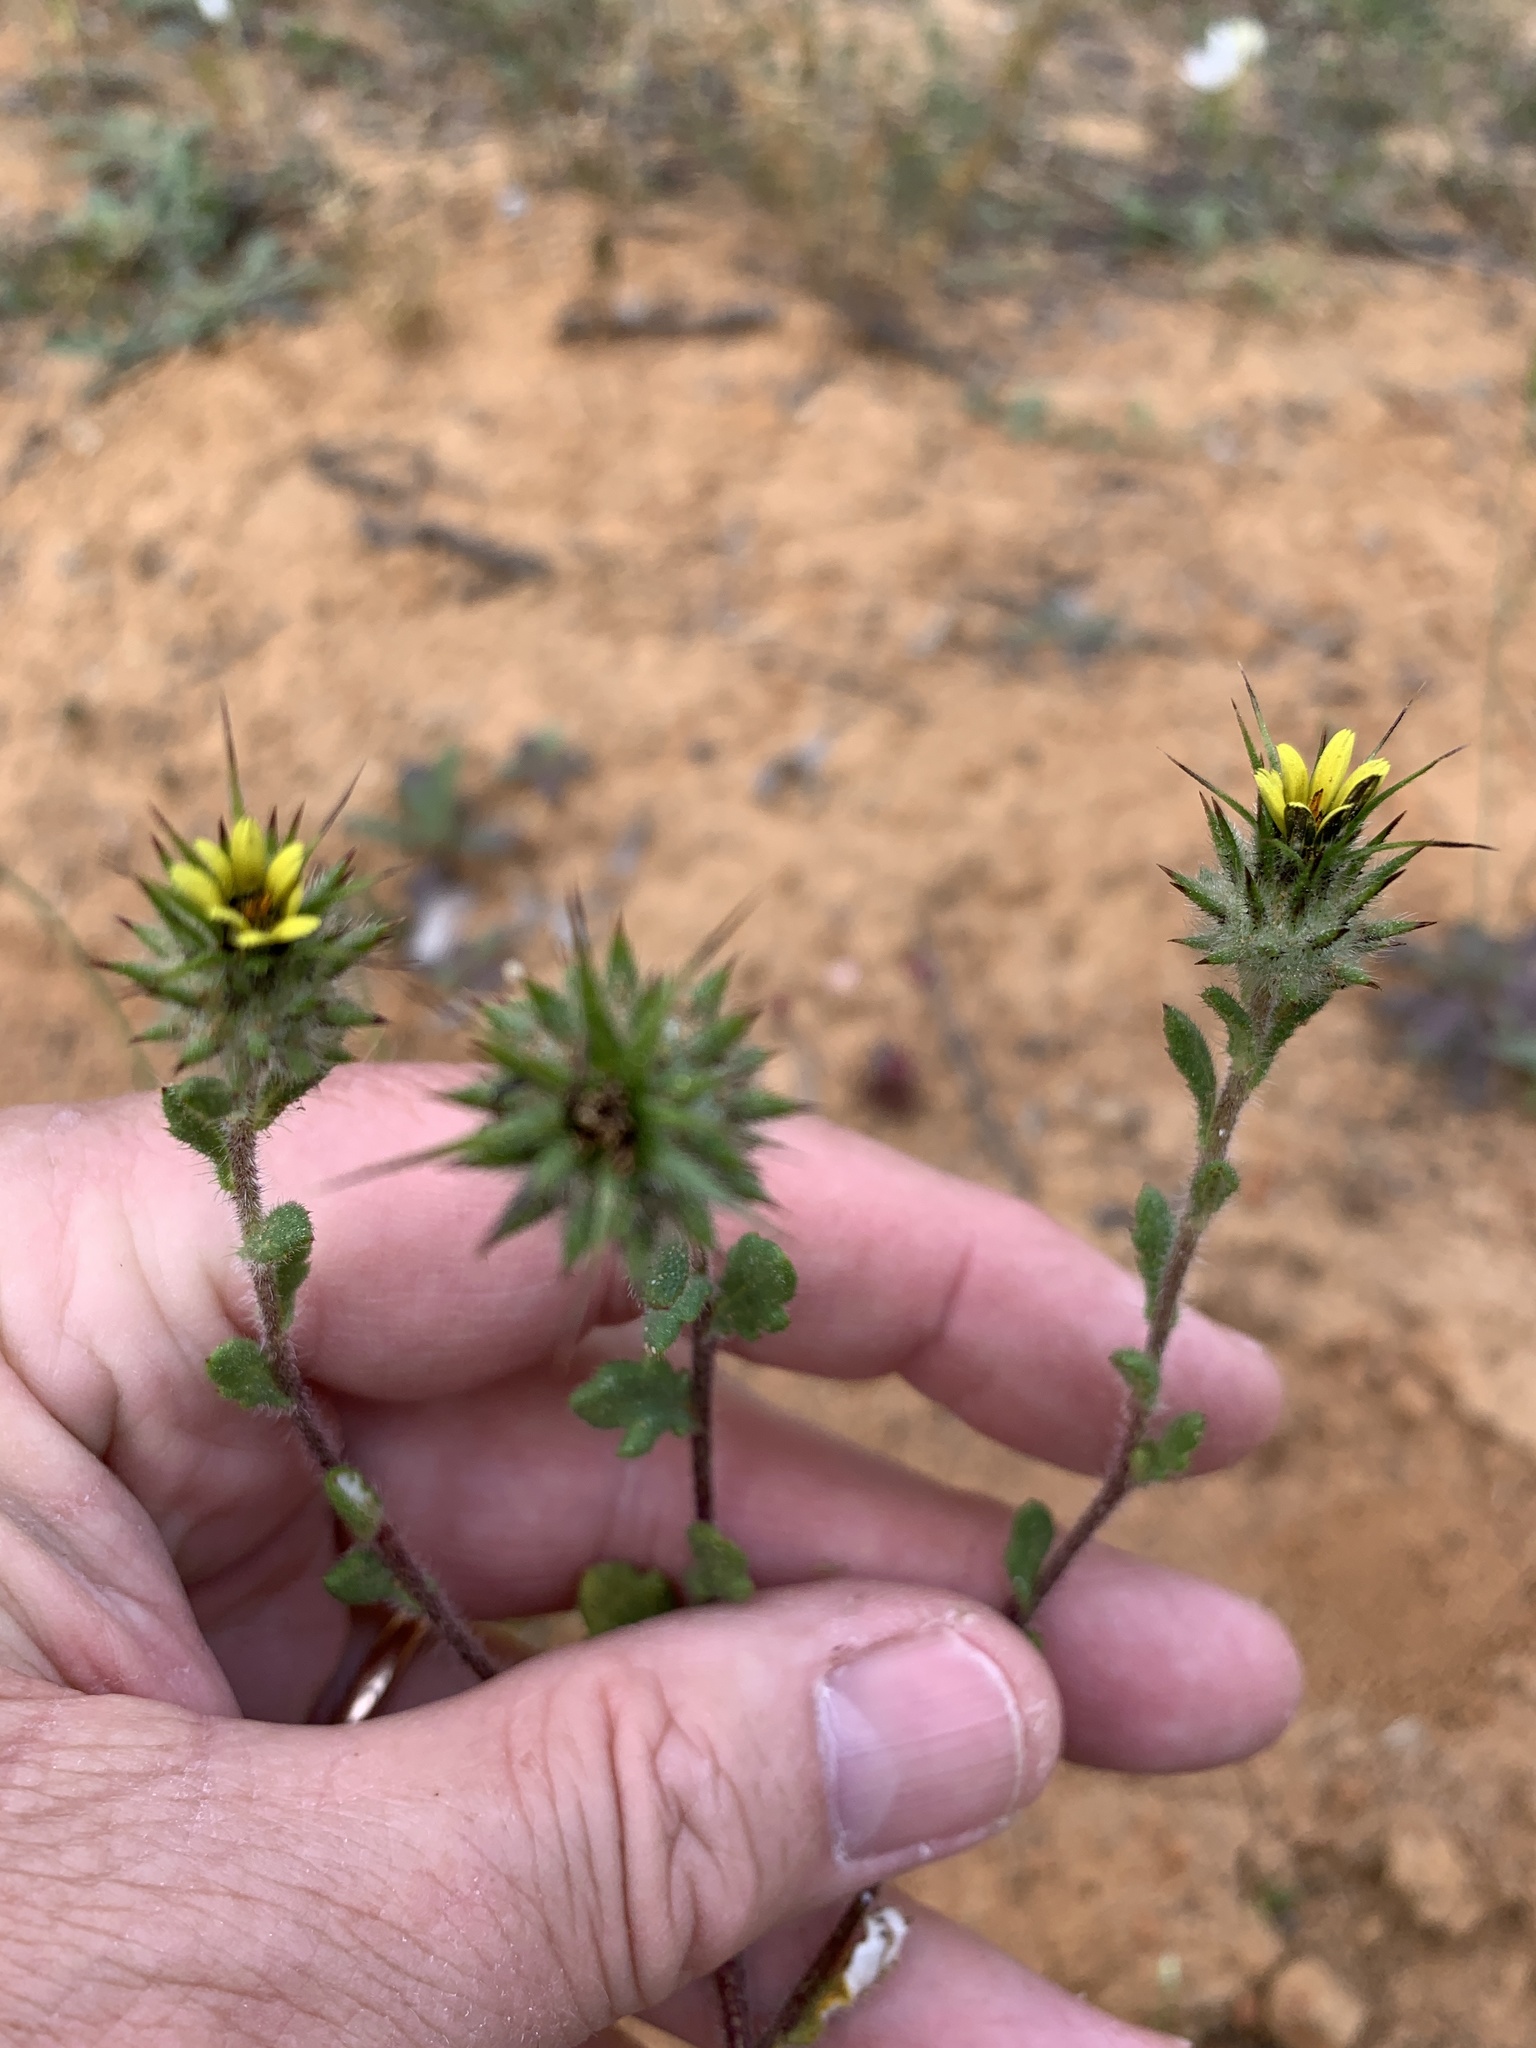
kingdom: Plantae
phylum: Tracheophyta
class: Magnoliopsida
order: Asterales
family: Asteraceae
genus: Gorteria
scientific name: Gorteria personata
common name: Gorteria
